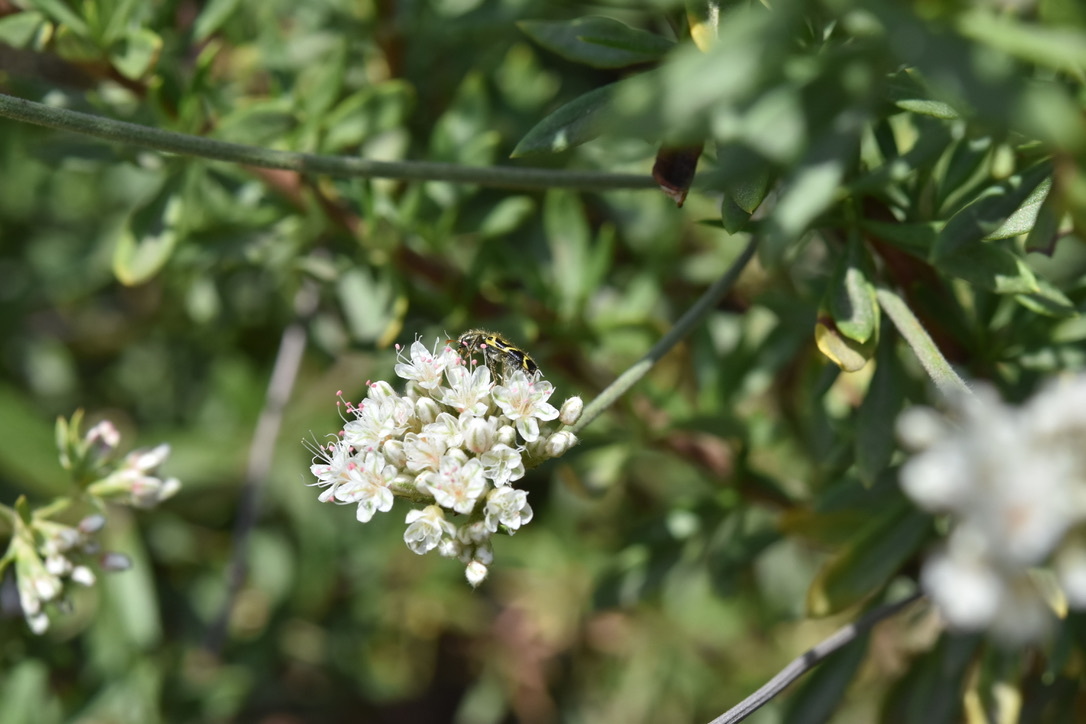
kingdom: Animalia
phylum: Arthropoda
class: Insecta
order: Coleoptera
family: Cleridae
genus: Trichodes
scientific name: Trichodes ornatus
